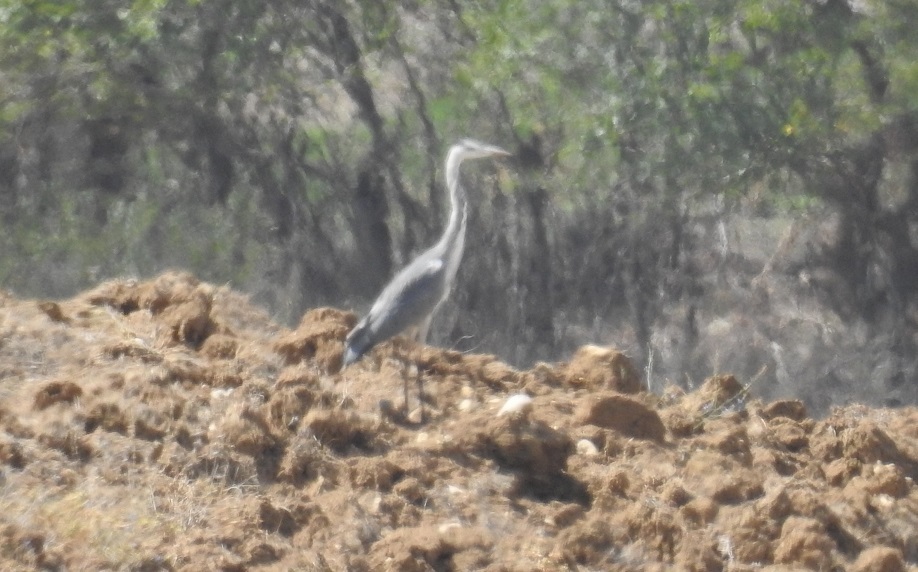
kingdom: Animalia
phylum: Chordata
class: Aves
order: Pelecaniformes
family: Ardeidae
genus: Ardea
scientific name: Ardea cinerea
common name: Grey heron
